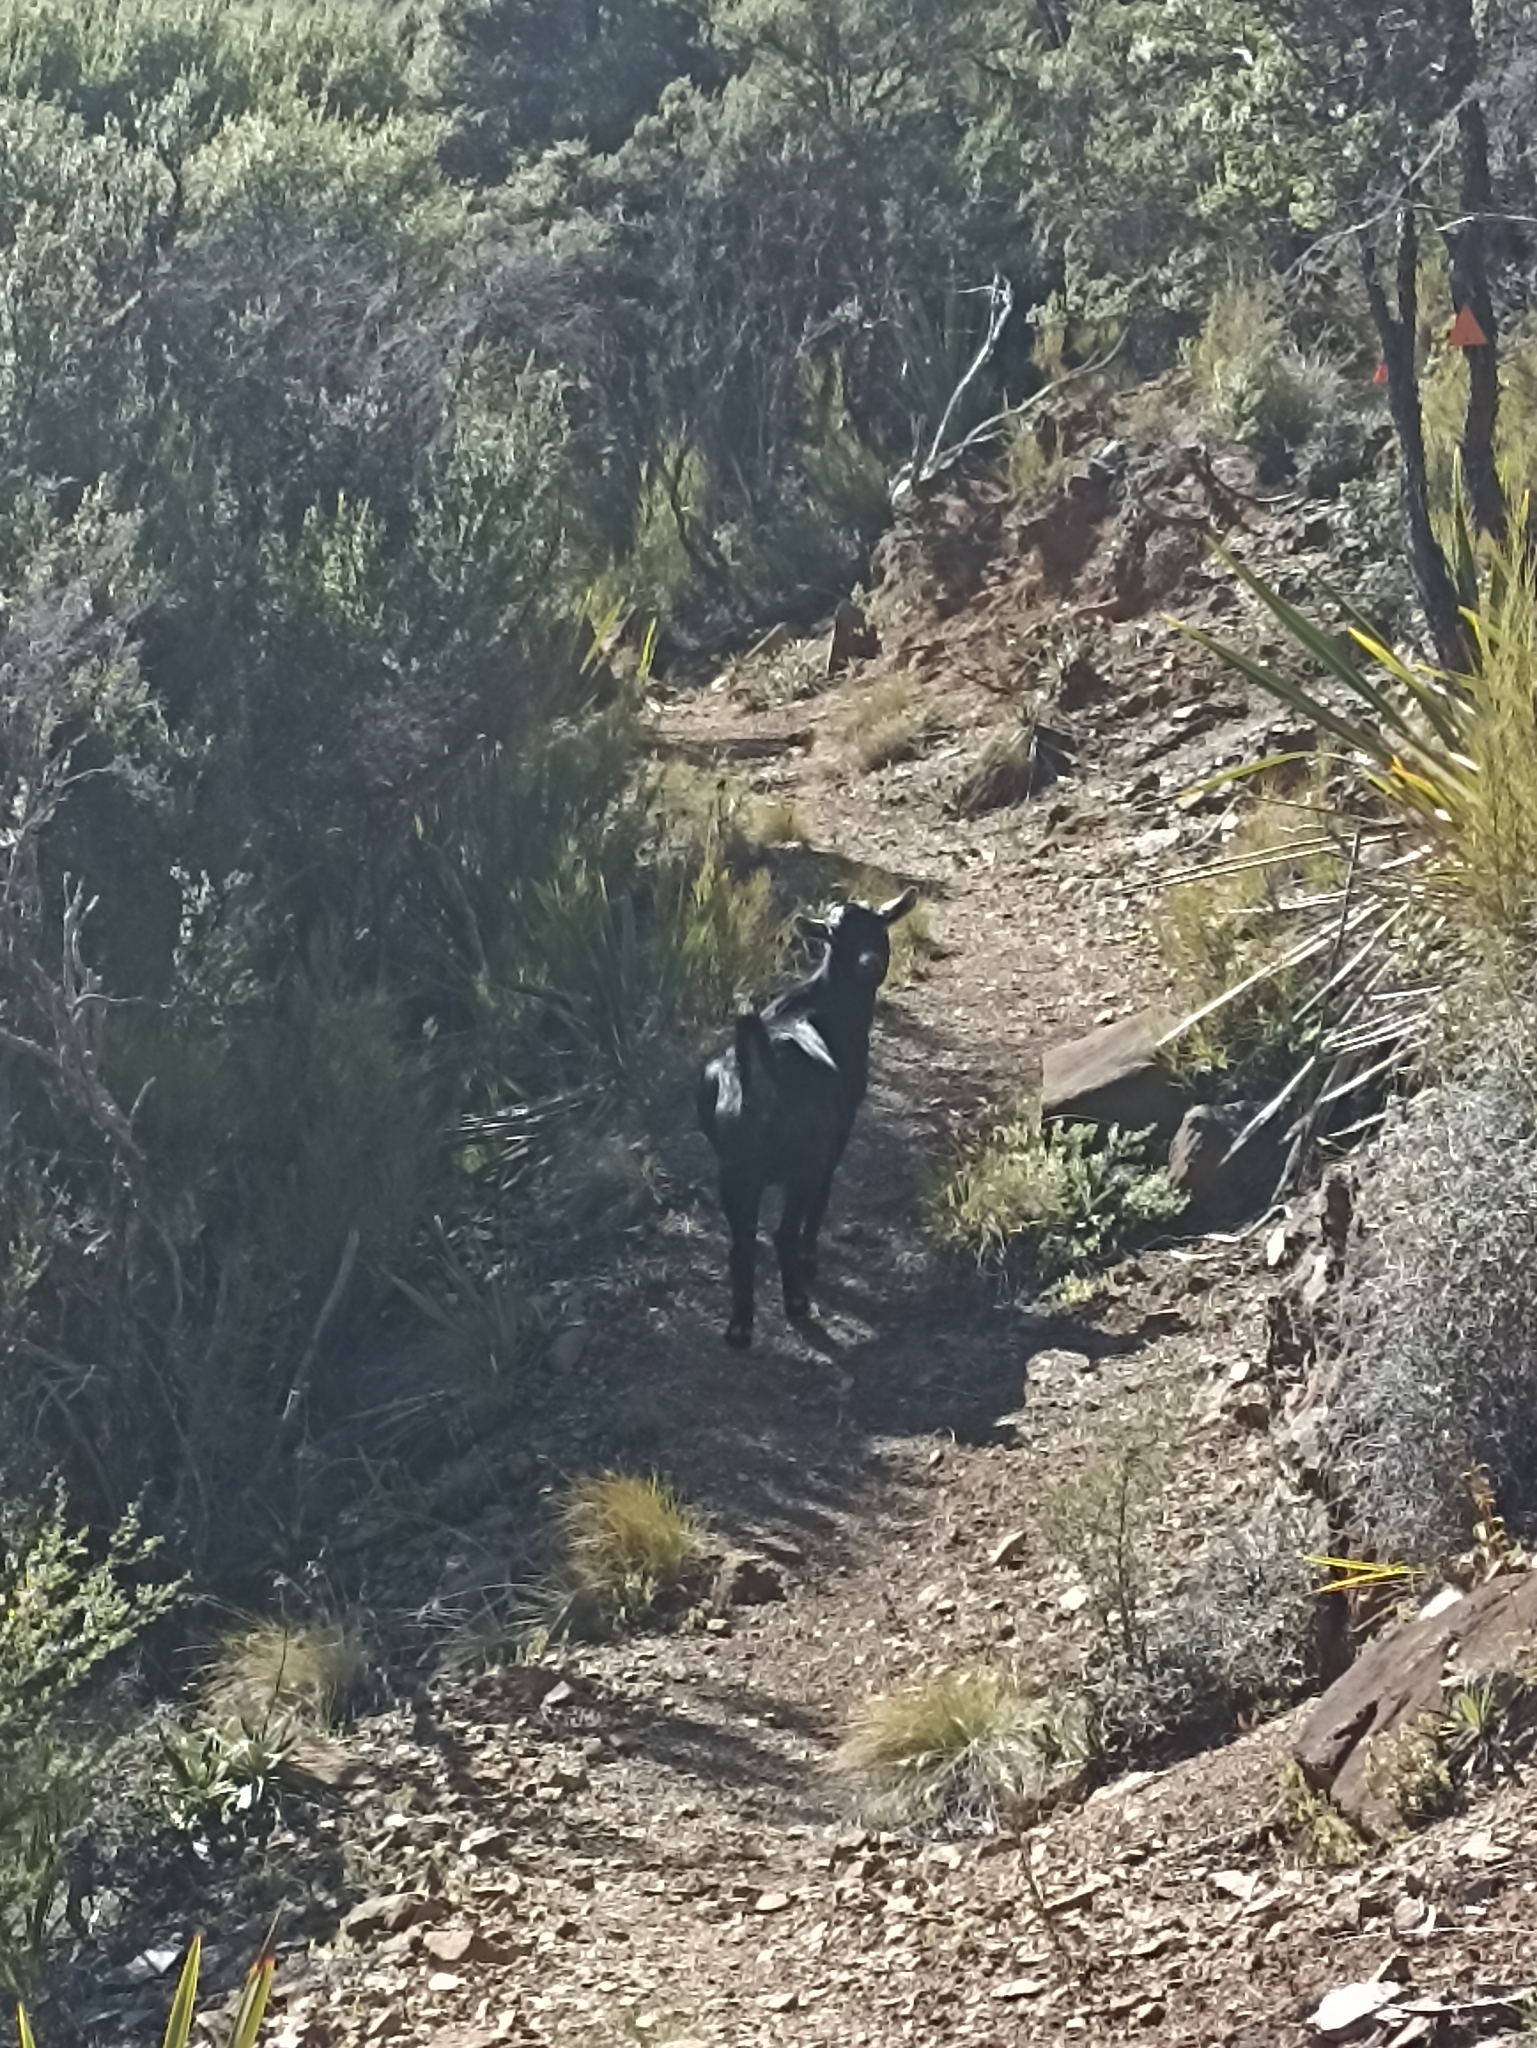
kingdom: Animalia
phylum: Chordata
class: Mammalia
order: Artiodactyla
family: Bovidae
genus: Capra
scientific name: Capra hircus
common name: Domestic goat
